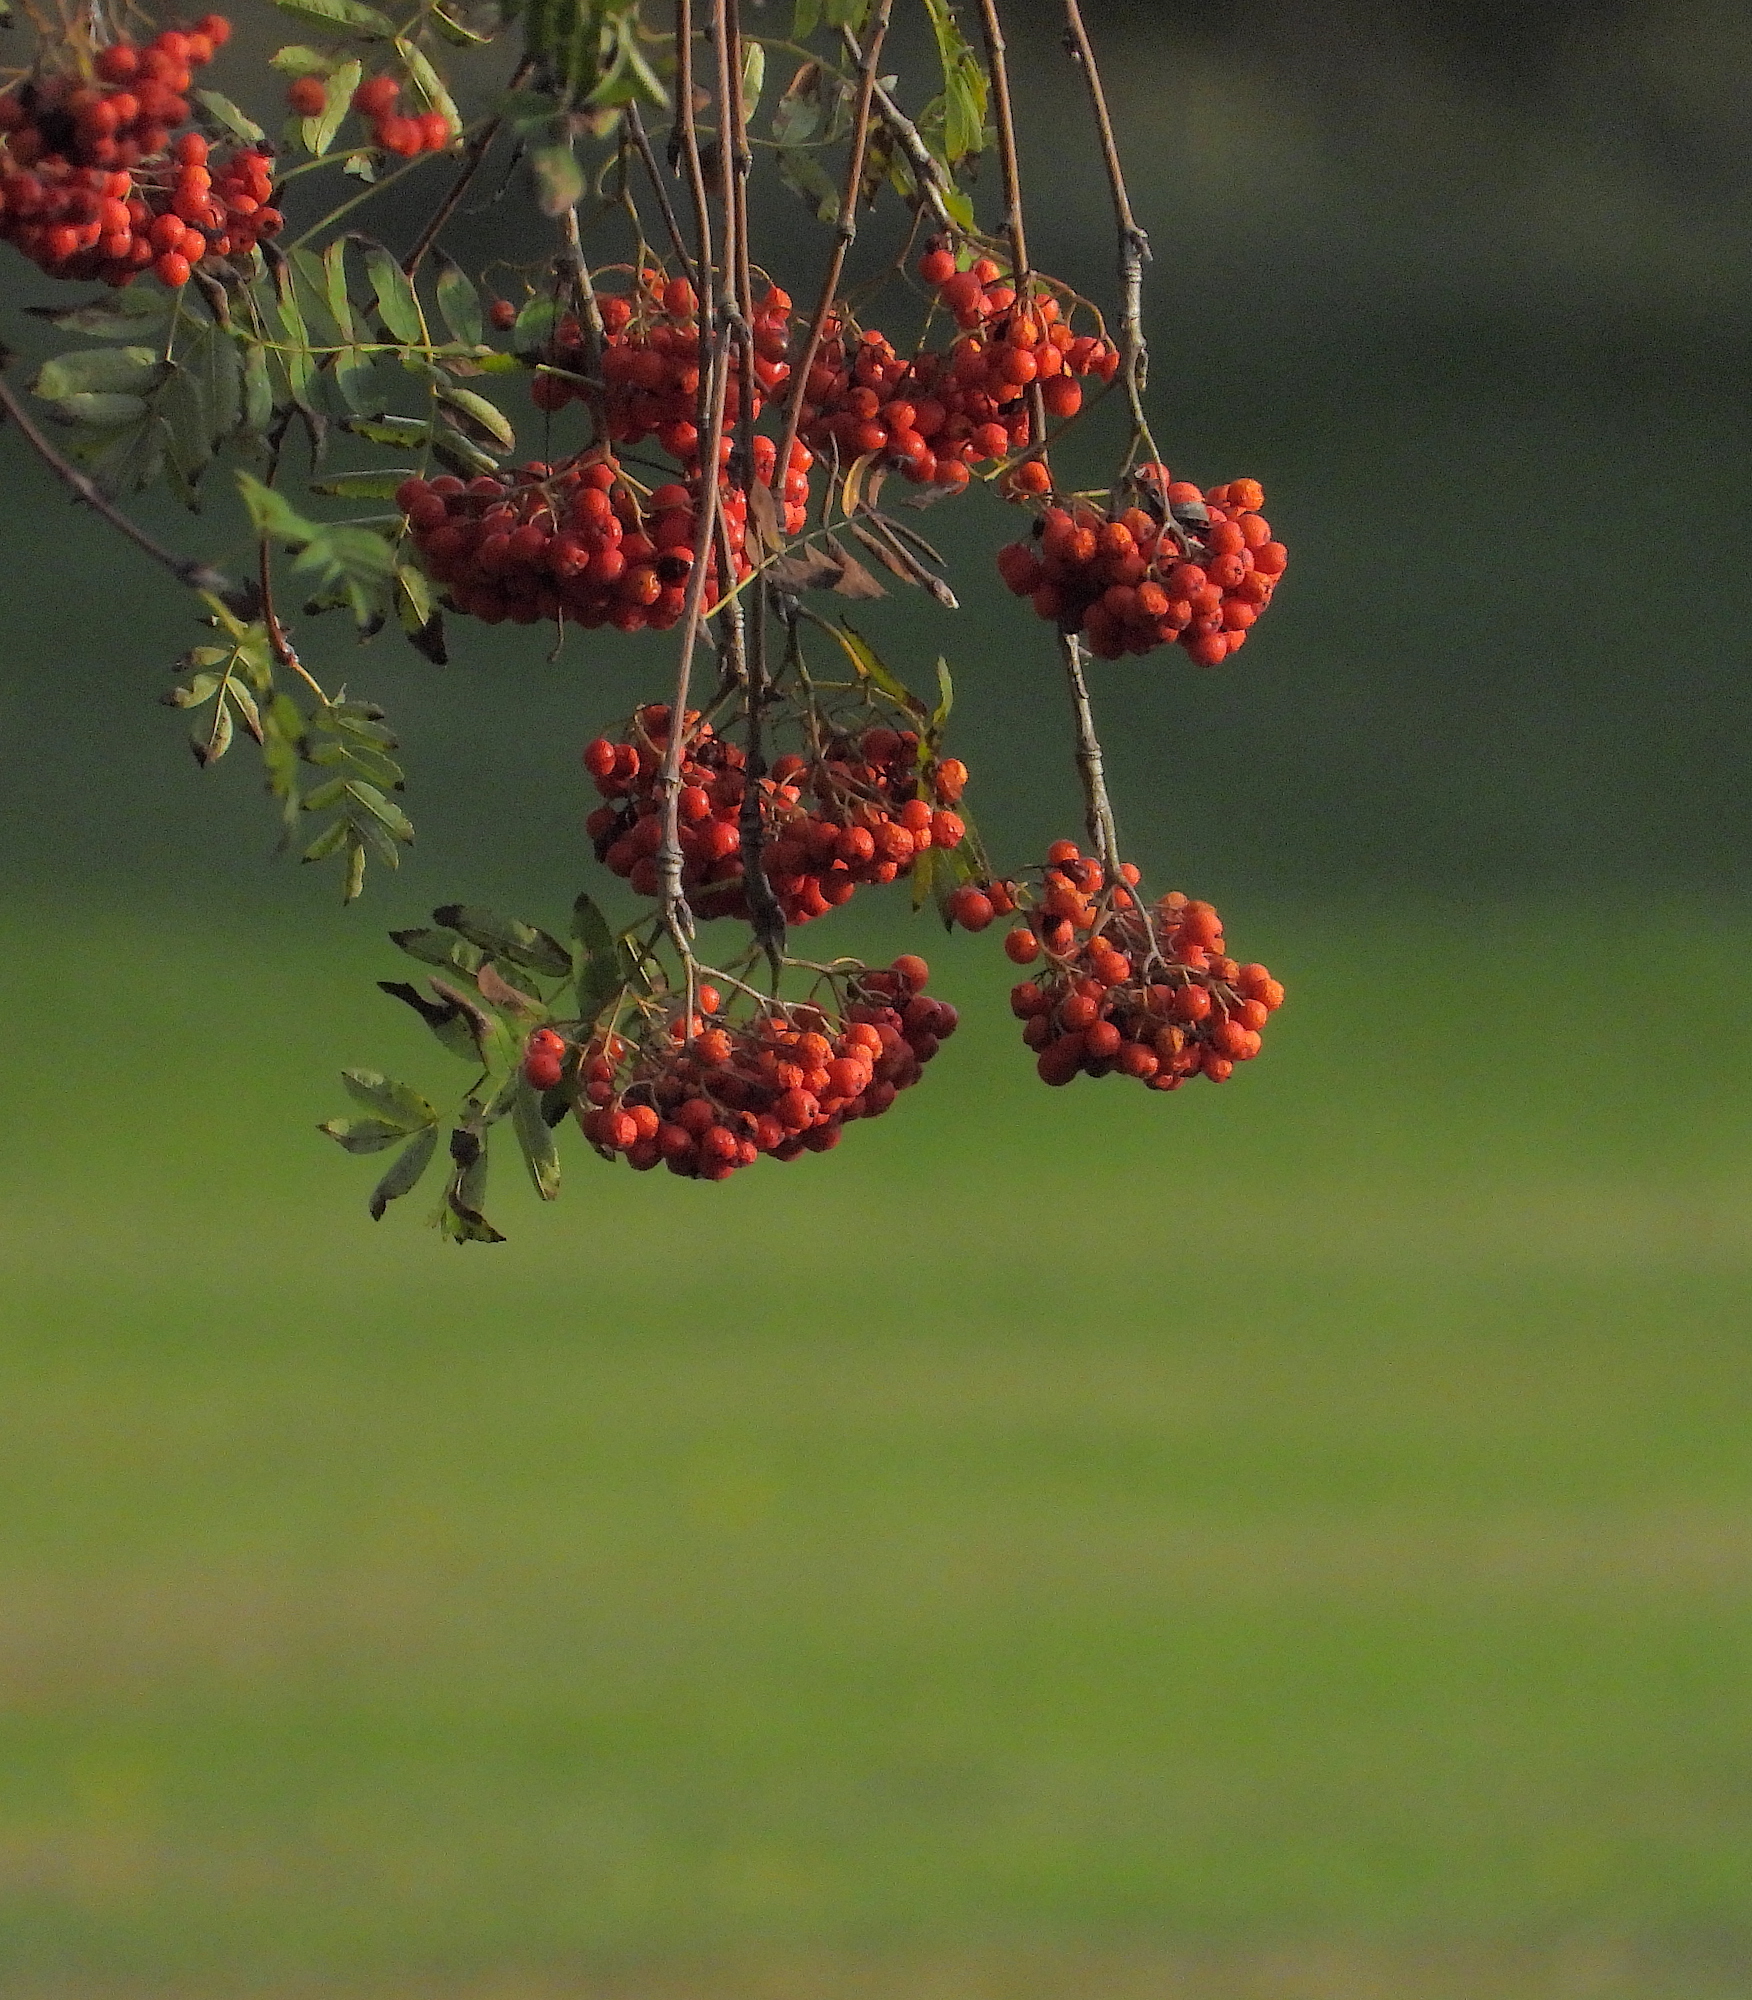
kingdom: Plantae
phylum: Tracheophyta
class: Magnoliopsida
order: Rosales
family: Rosaceae
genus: Sorbus
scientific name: Sorbus aucuparia
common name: Rowan
